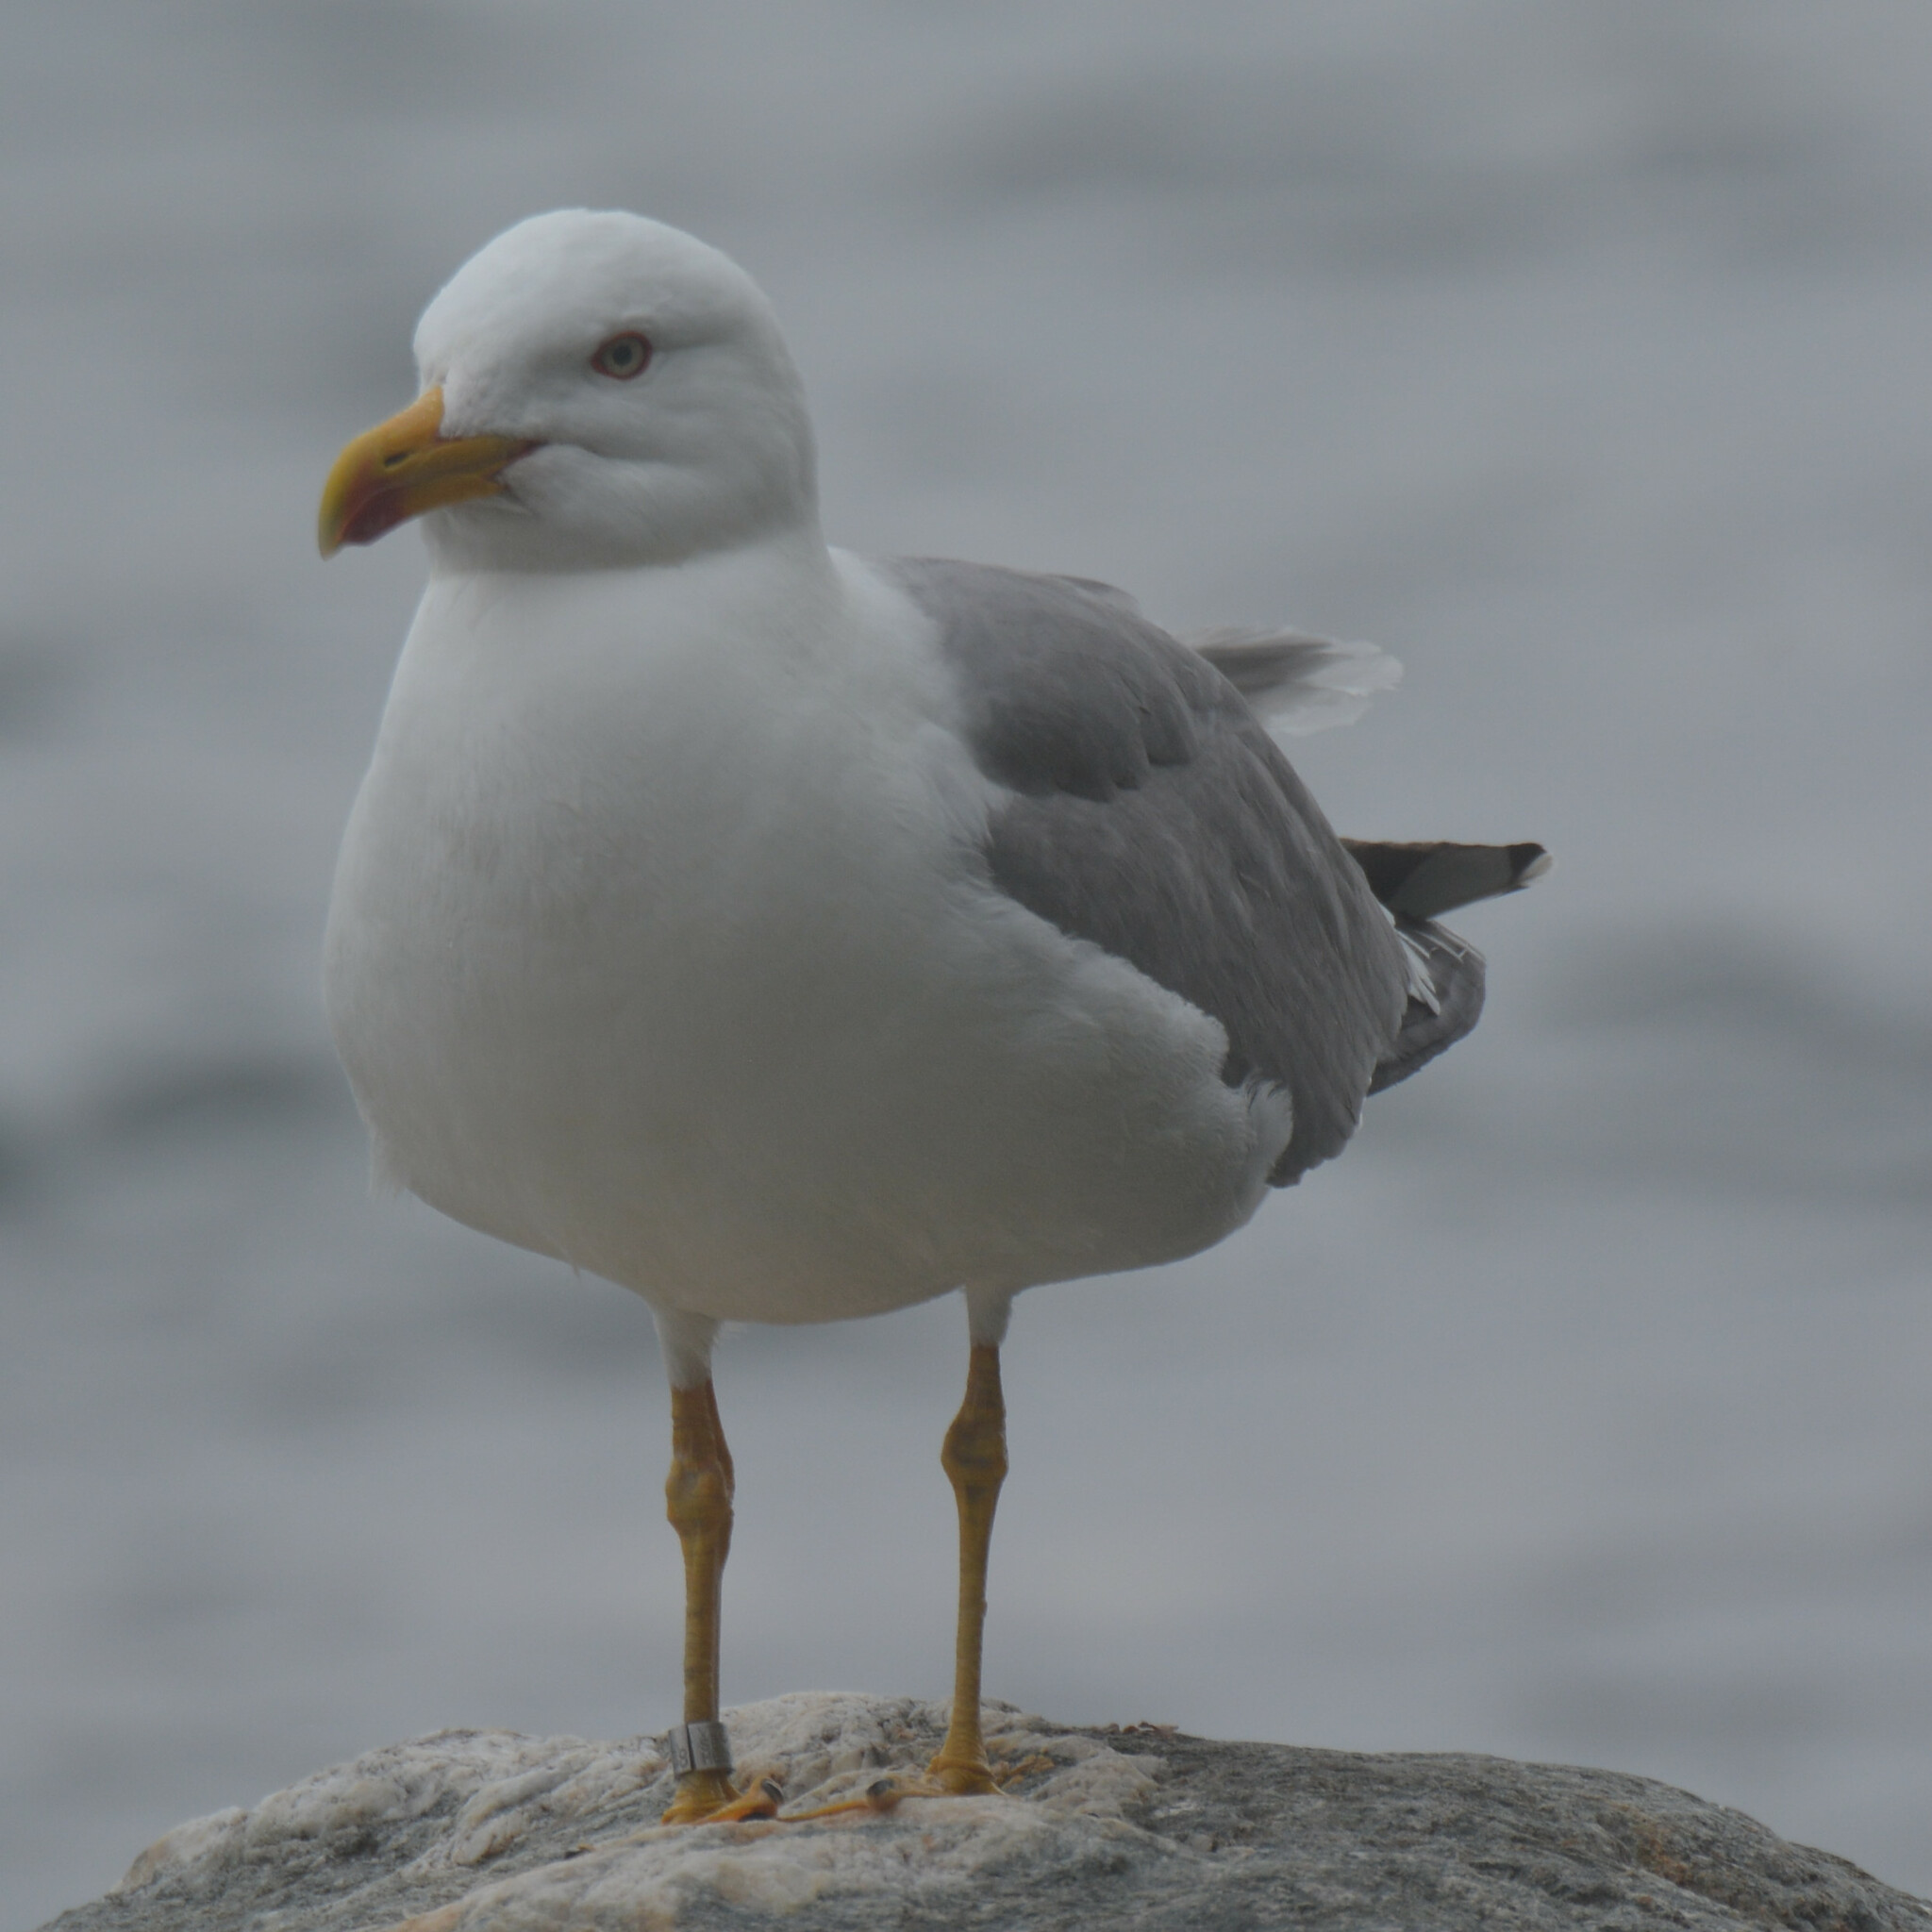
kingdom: Animalia
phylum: Chordata
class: Aves
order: Charadriiformes
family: Laridae
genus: Larus
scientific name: Larus michahellis
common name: Yellow-legged gull
